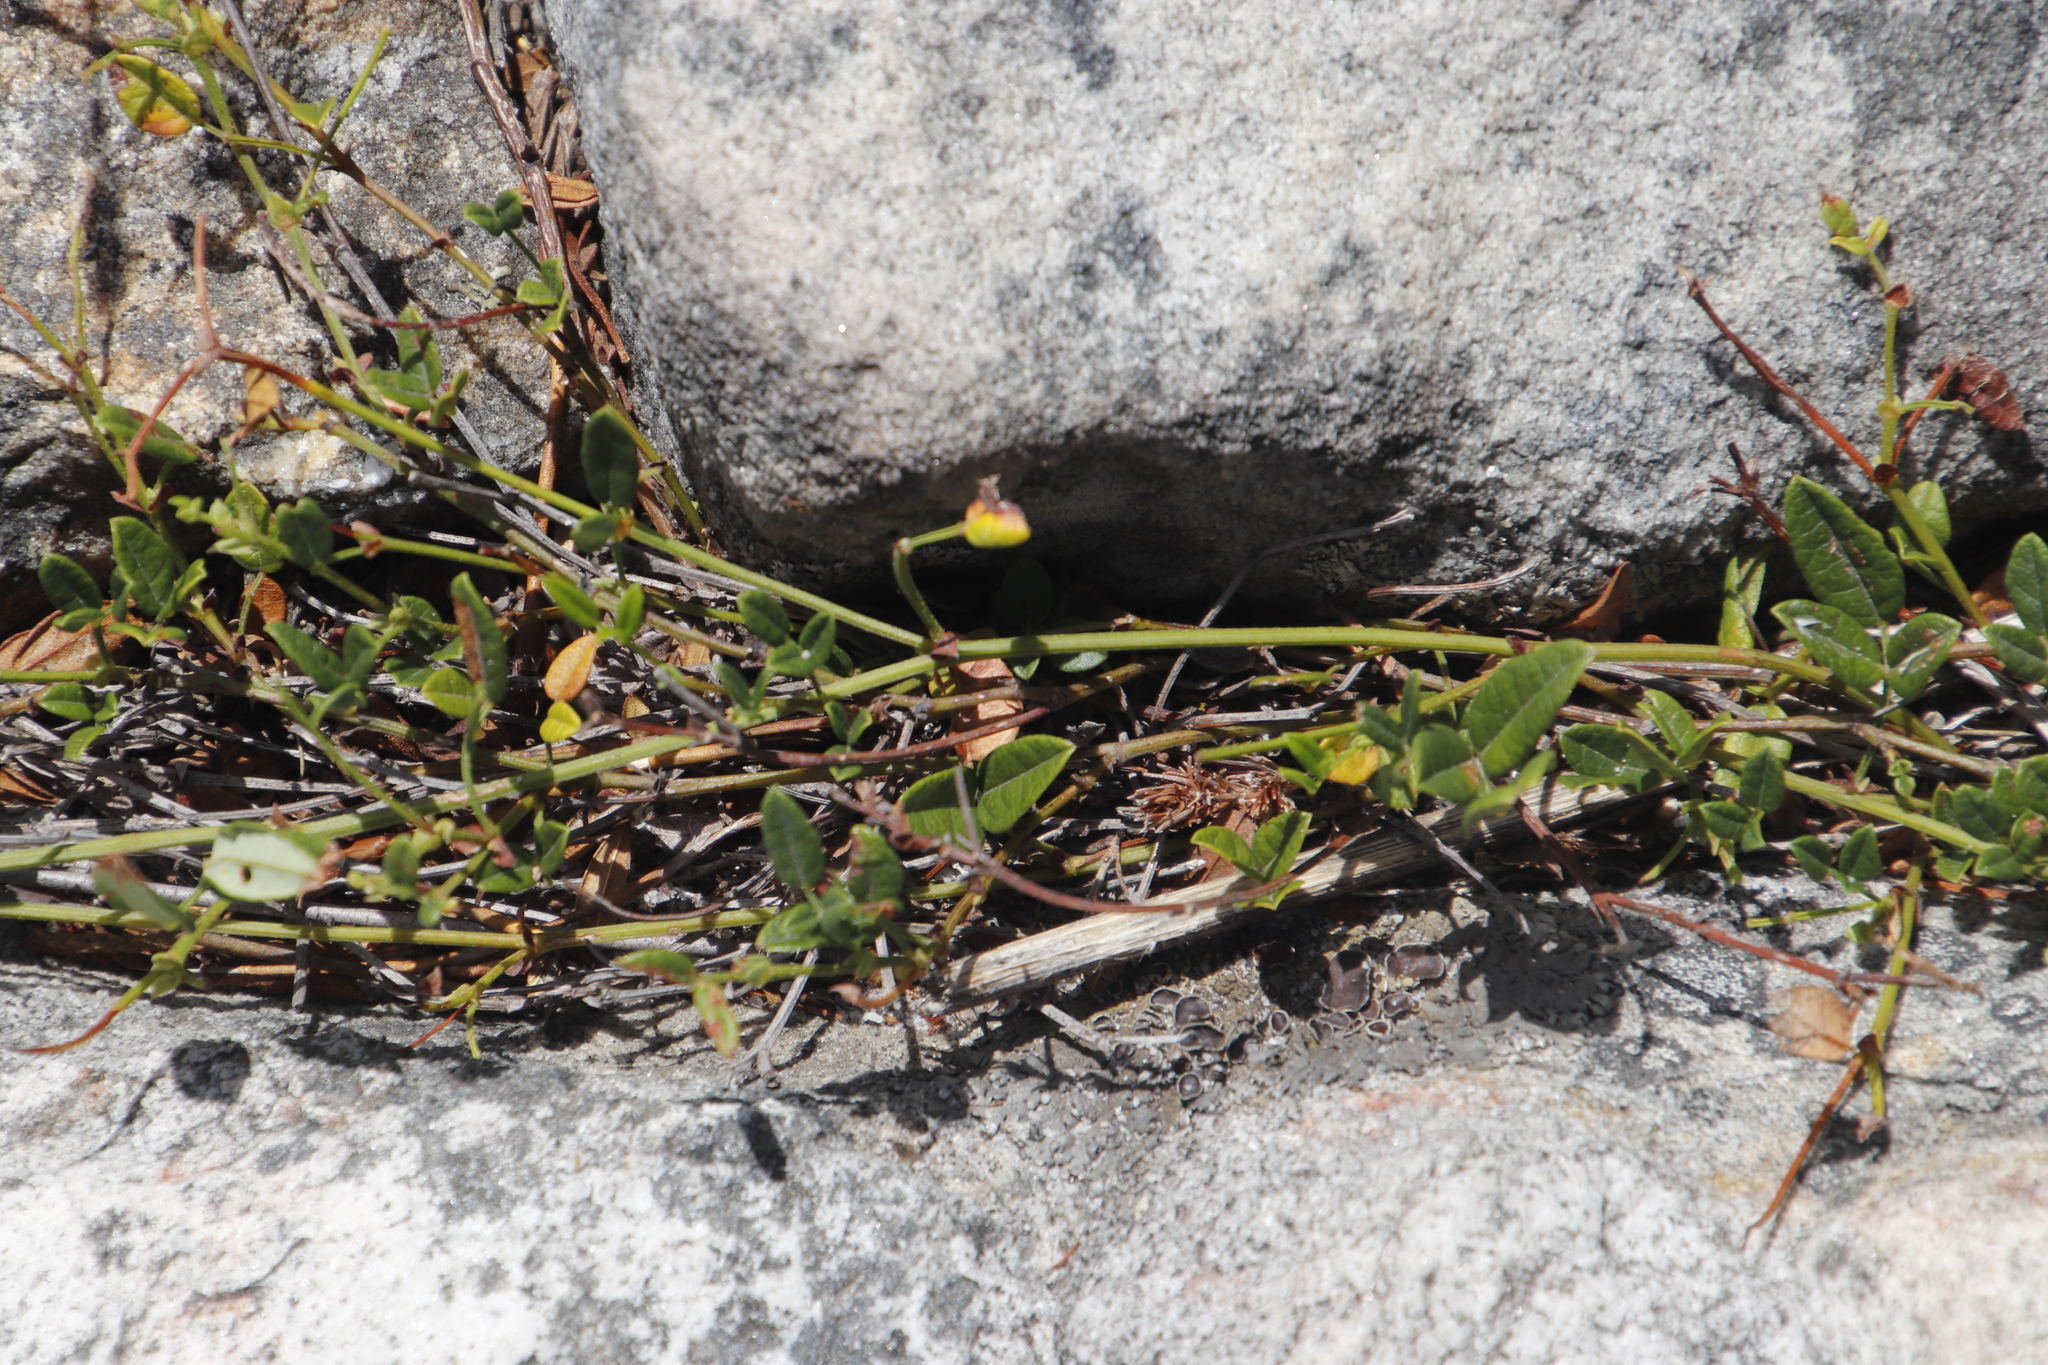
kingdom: Plantae
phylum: Tracheophyta
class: Magnoliopsida
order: Fabales
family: Fabaceae
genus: Bolusafra
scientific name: Bolusafra bituminosa
